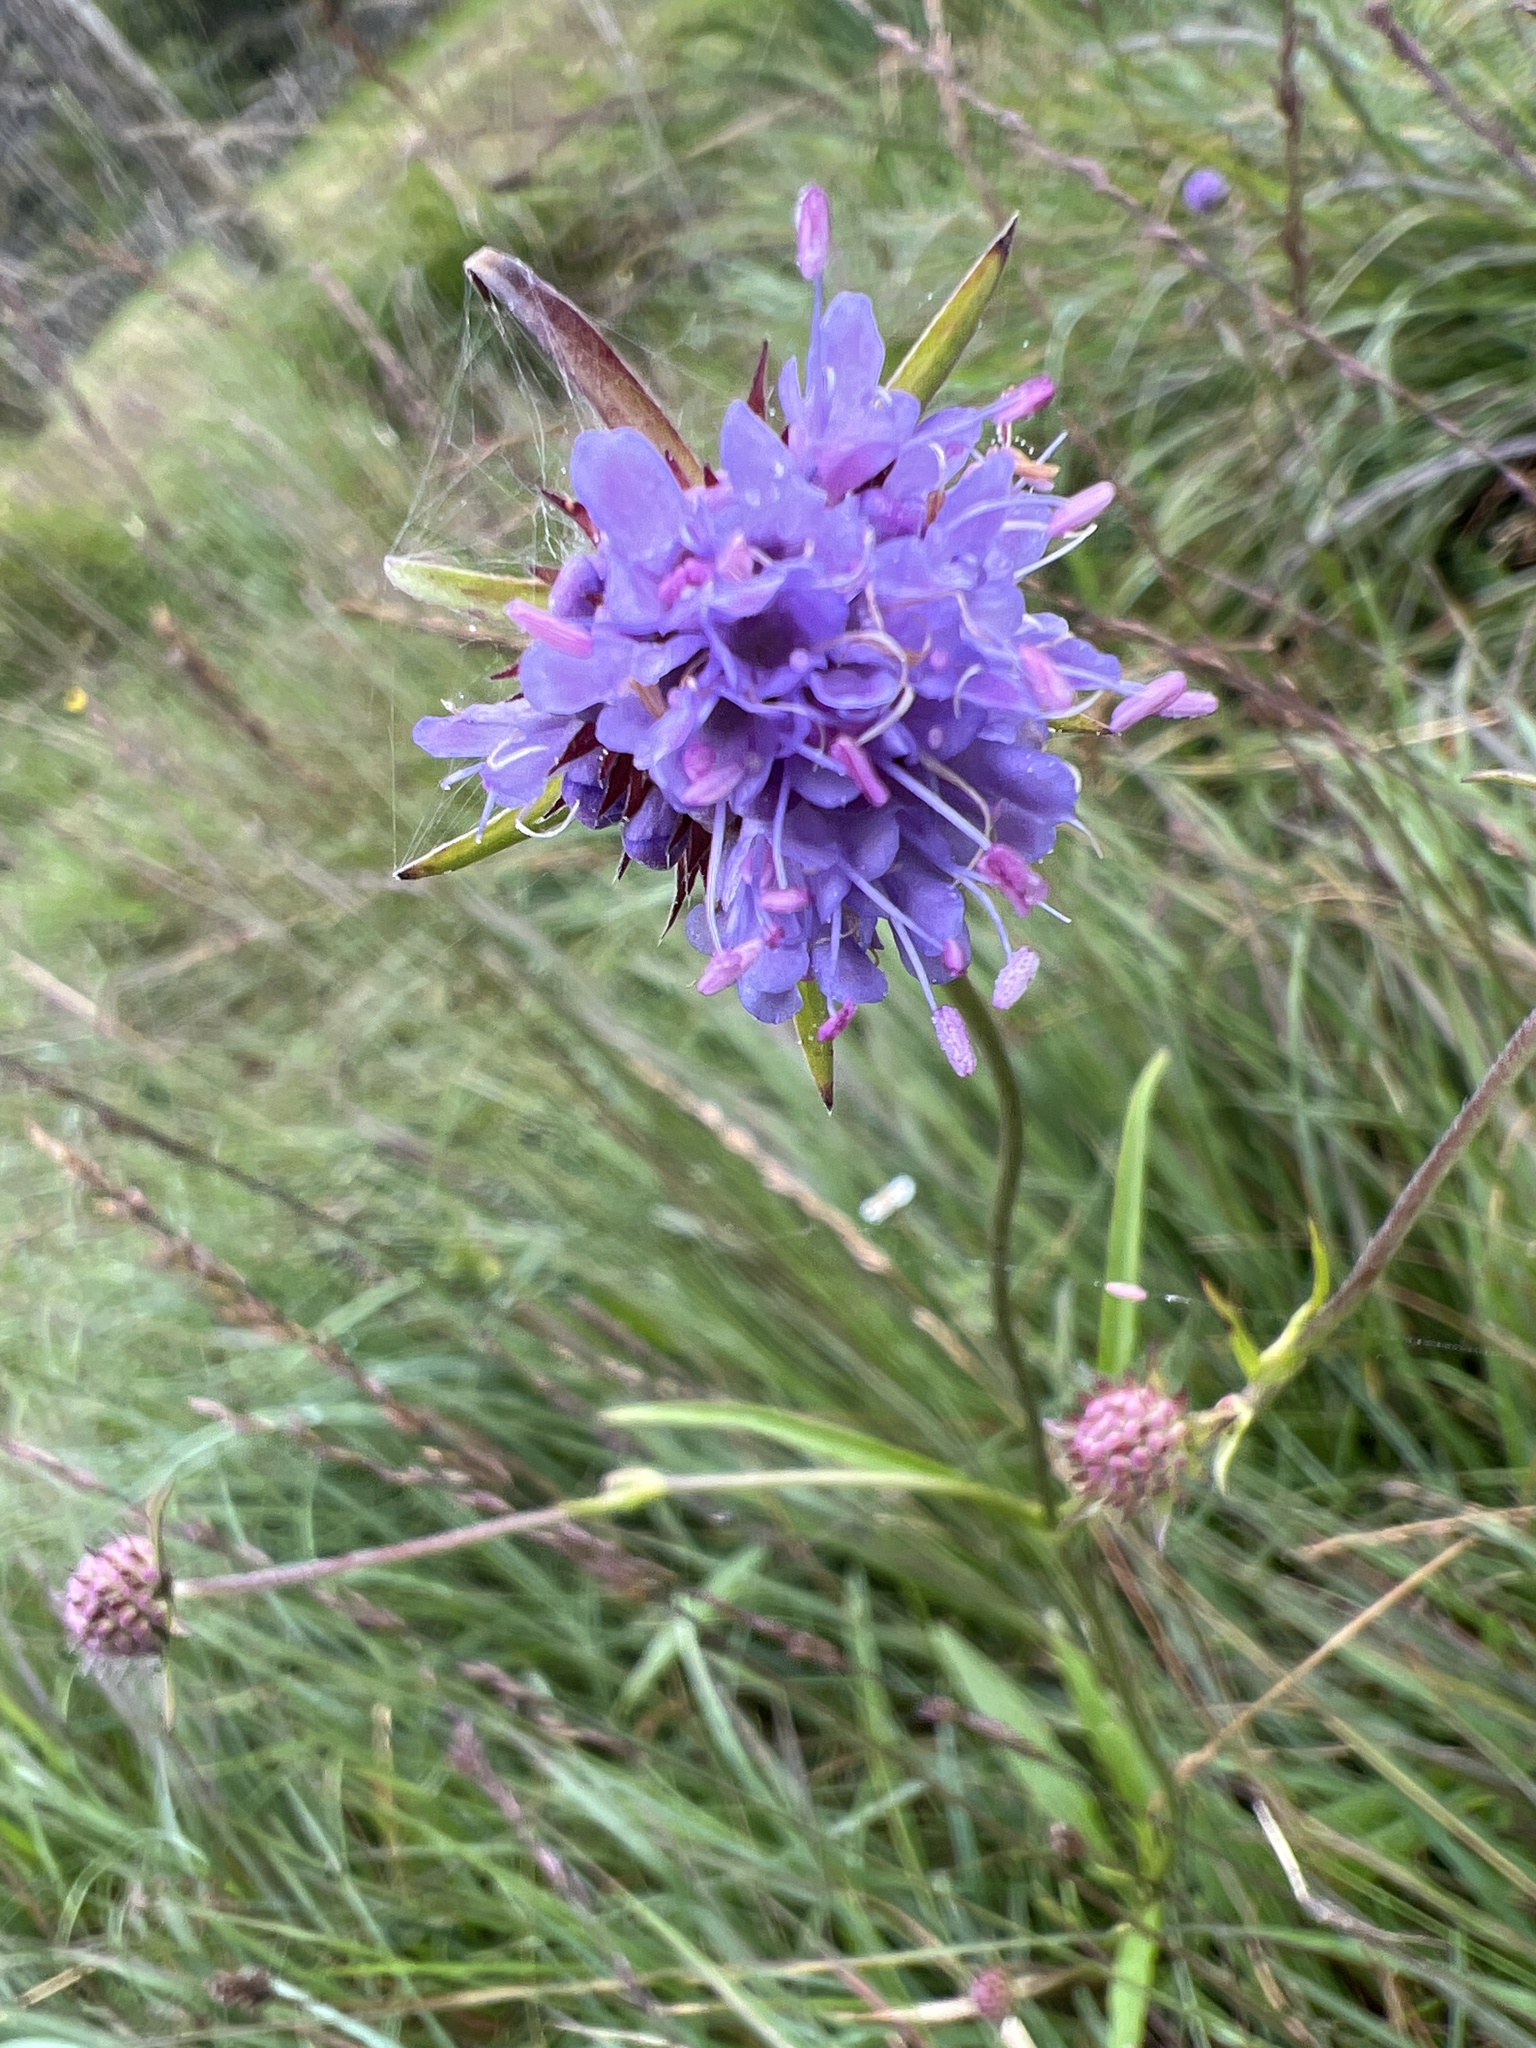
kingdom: Plantae
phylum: Tracheophyta
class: Magnoliopsida
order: Dipsacales
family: Caprifoliaceae
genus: Succisa
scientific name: Succisa pratensis
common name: Devil's-bit
